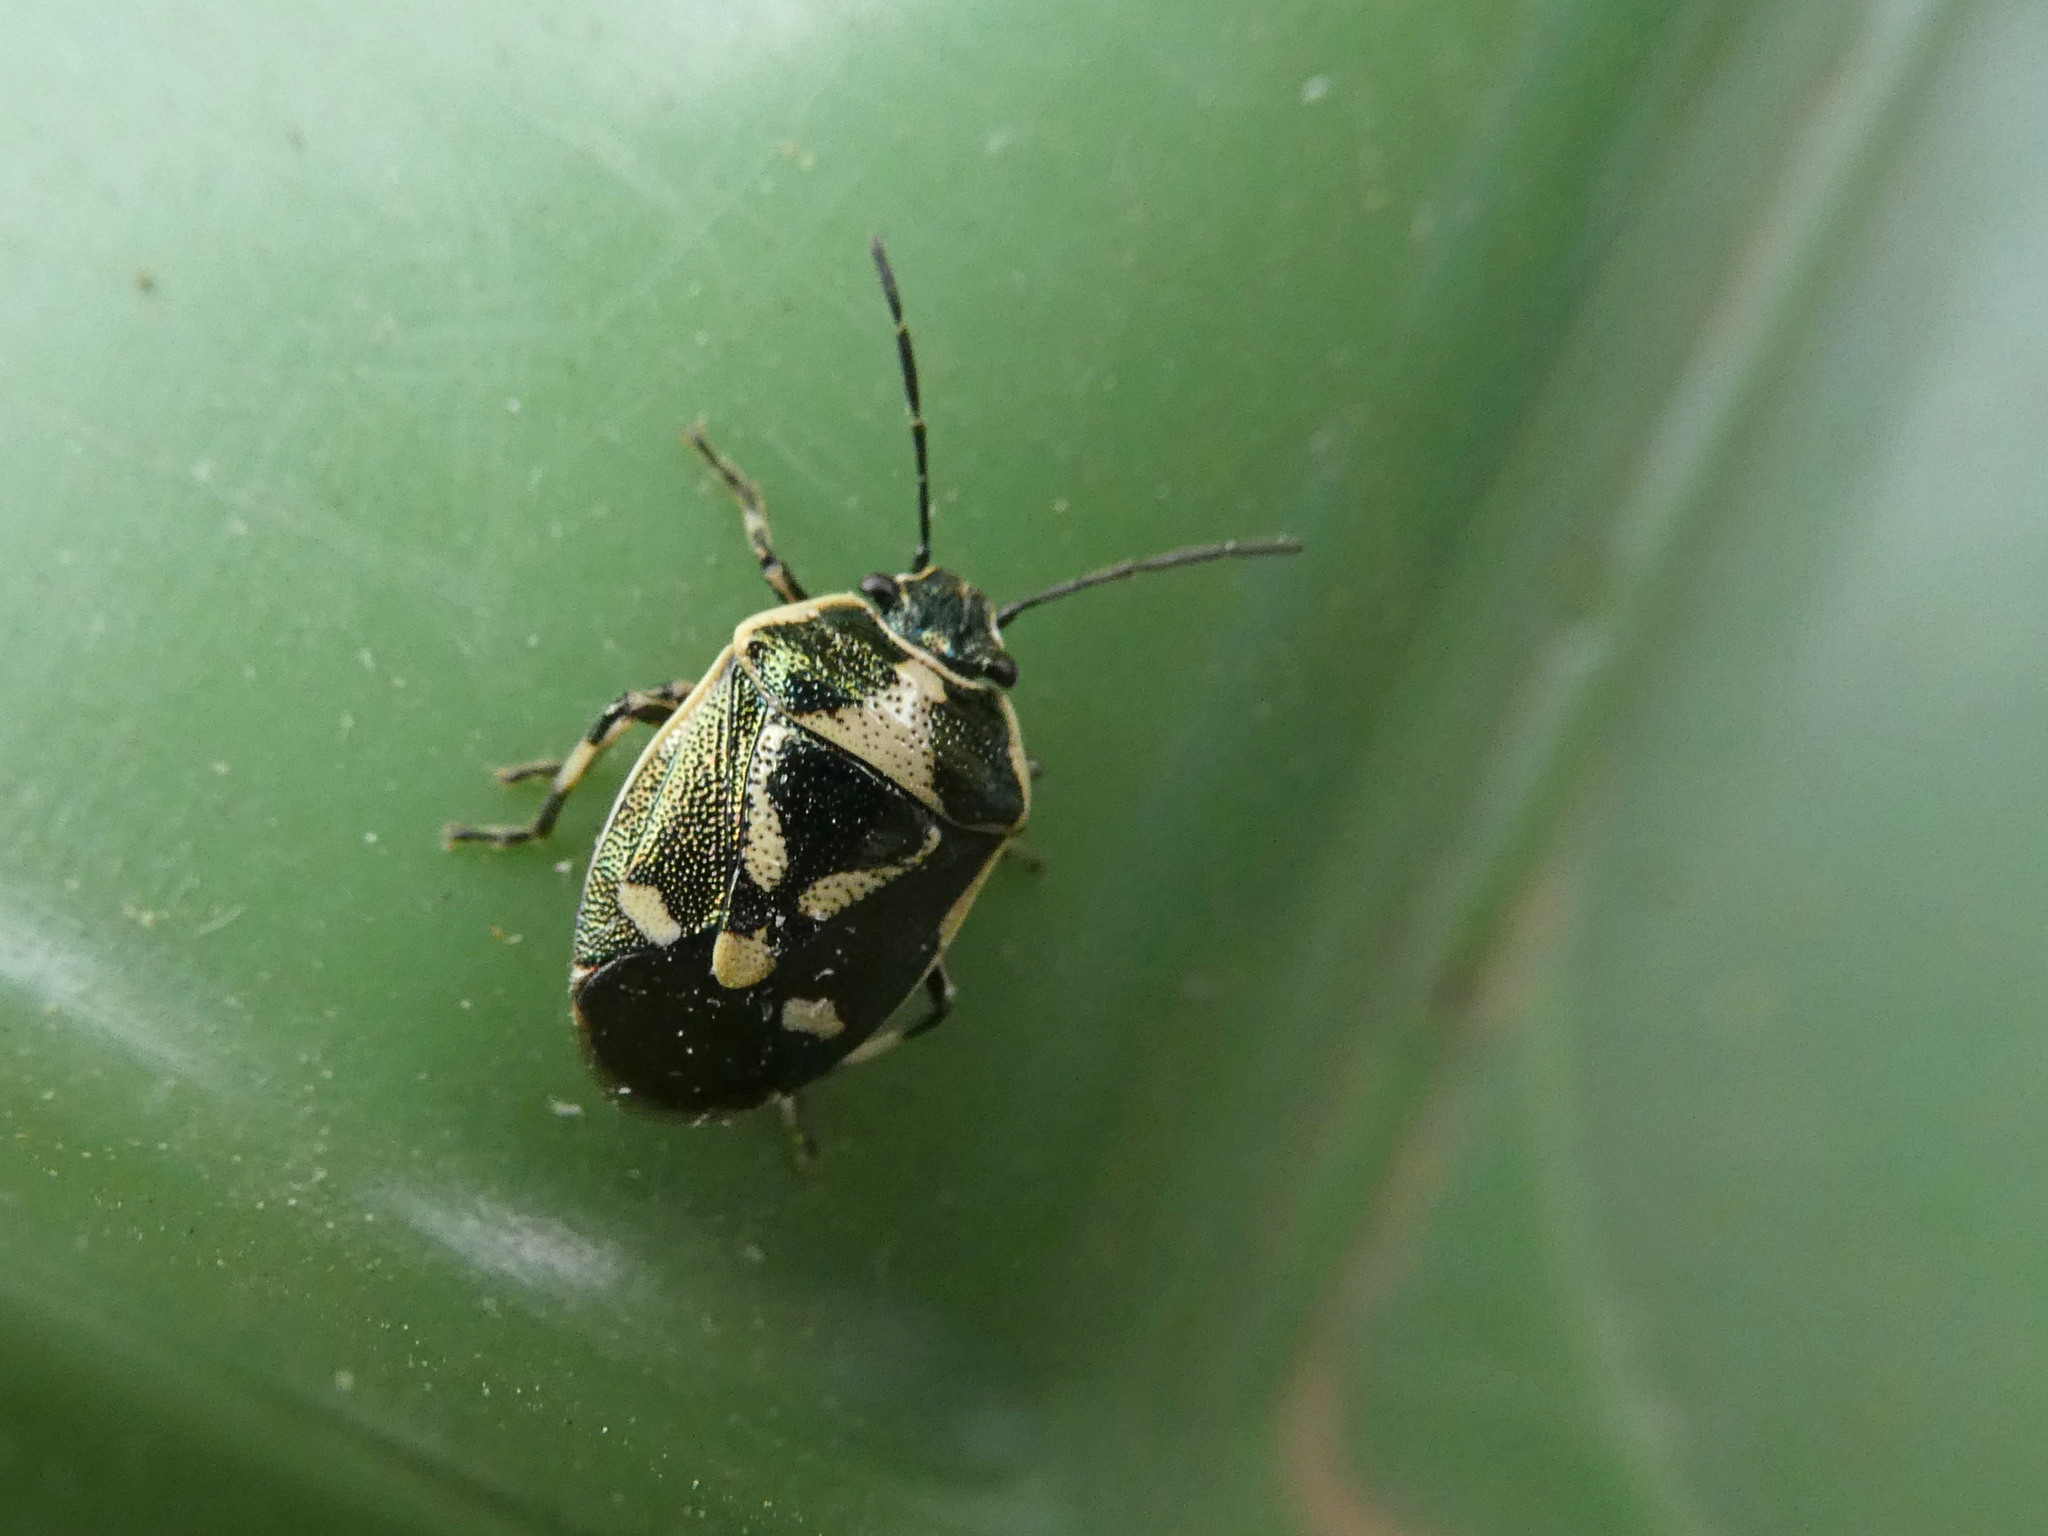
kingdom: Animalia
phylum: Arthropoda
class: Insecta
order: Hemiptera
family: Pentatomidae
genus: Eurydema
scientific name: Eurydema oleracea
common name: Cabbage bug
